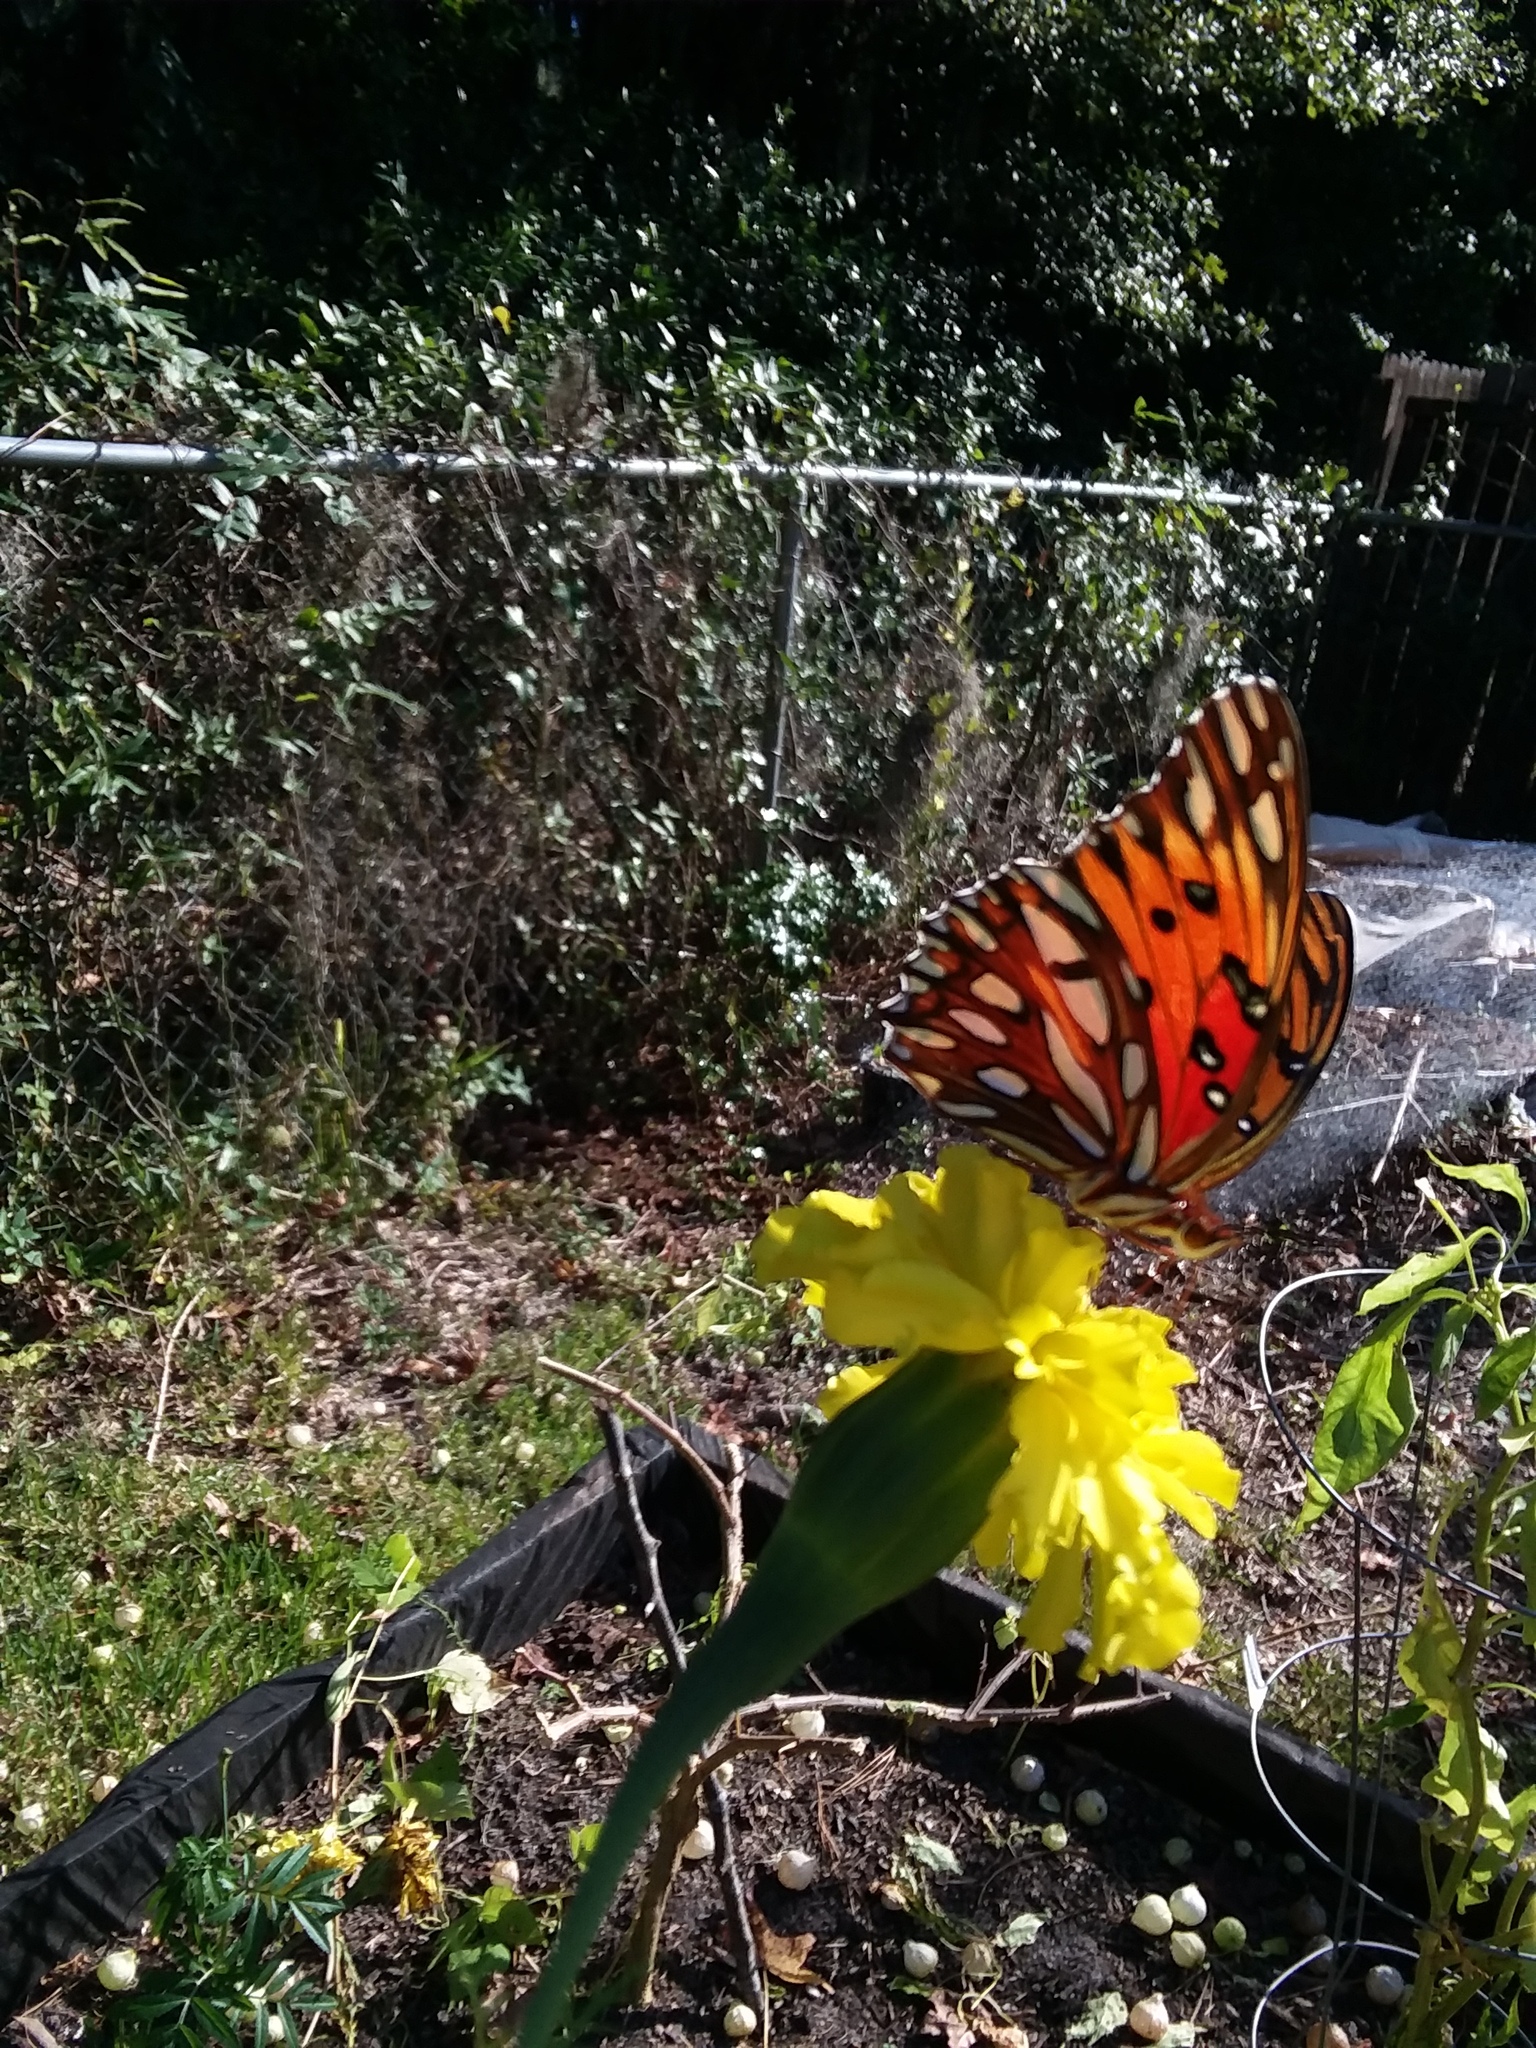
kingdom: Animalia
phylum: Arthropoda
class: Insecta
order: Lepidoptera
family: Nymphalidae
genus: Dione
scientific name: Dione vanillae
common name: Gulf fritillary
